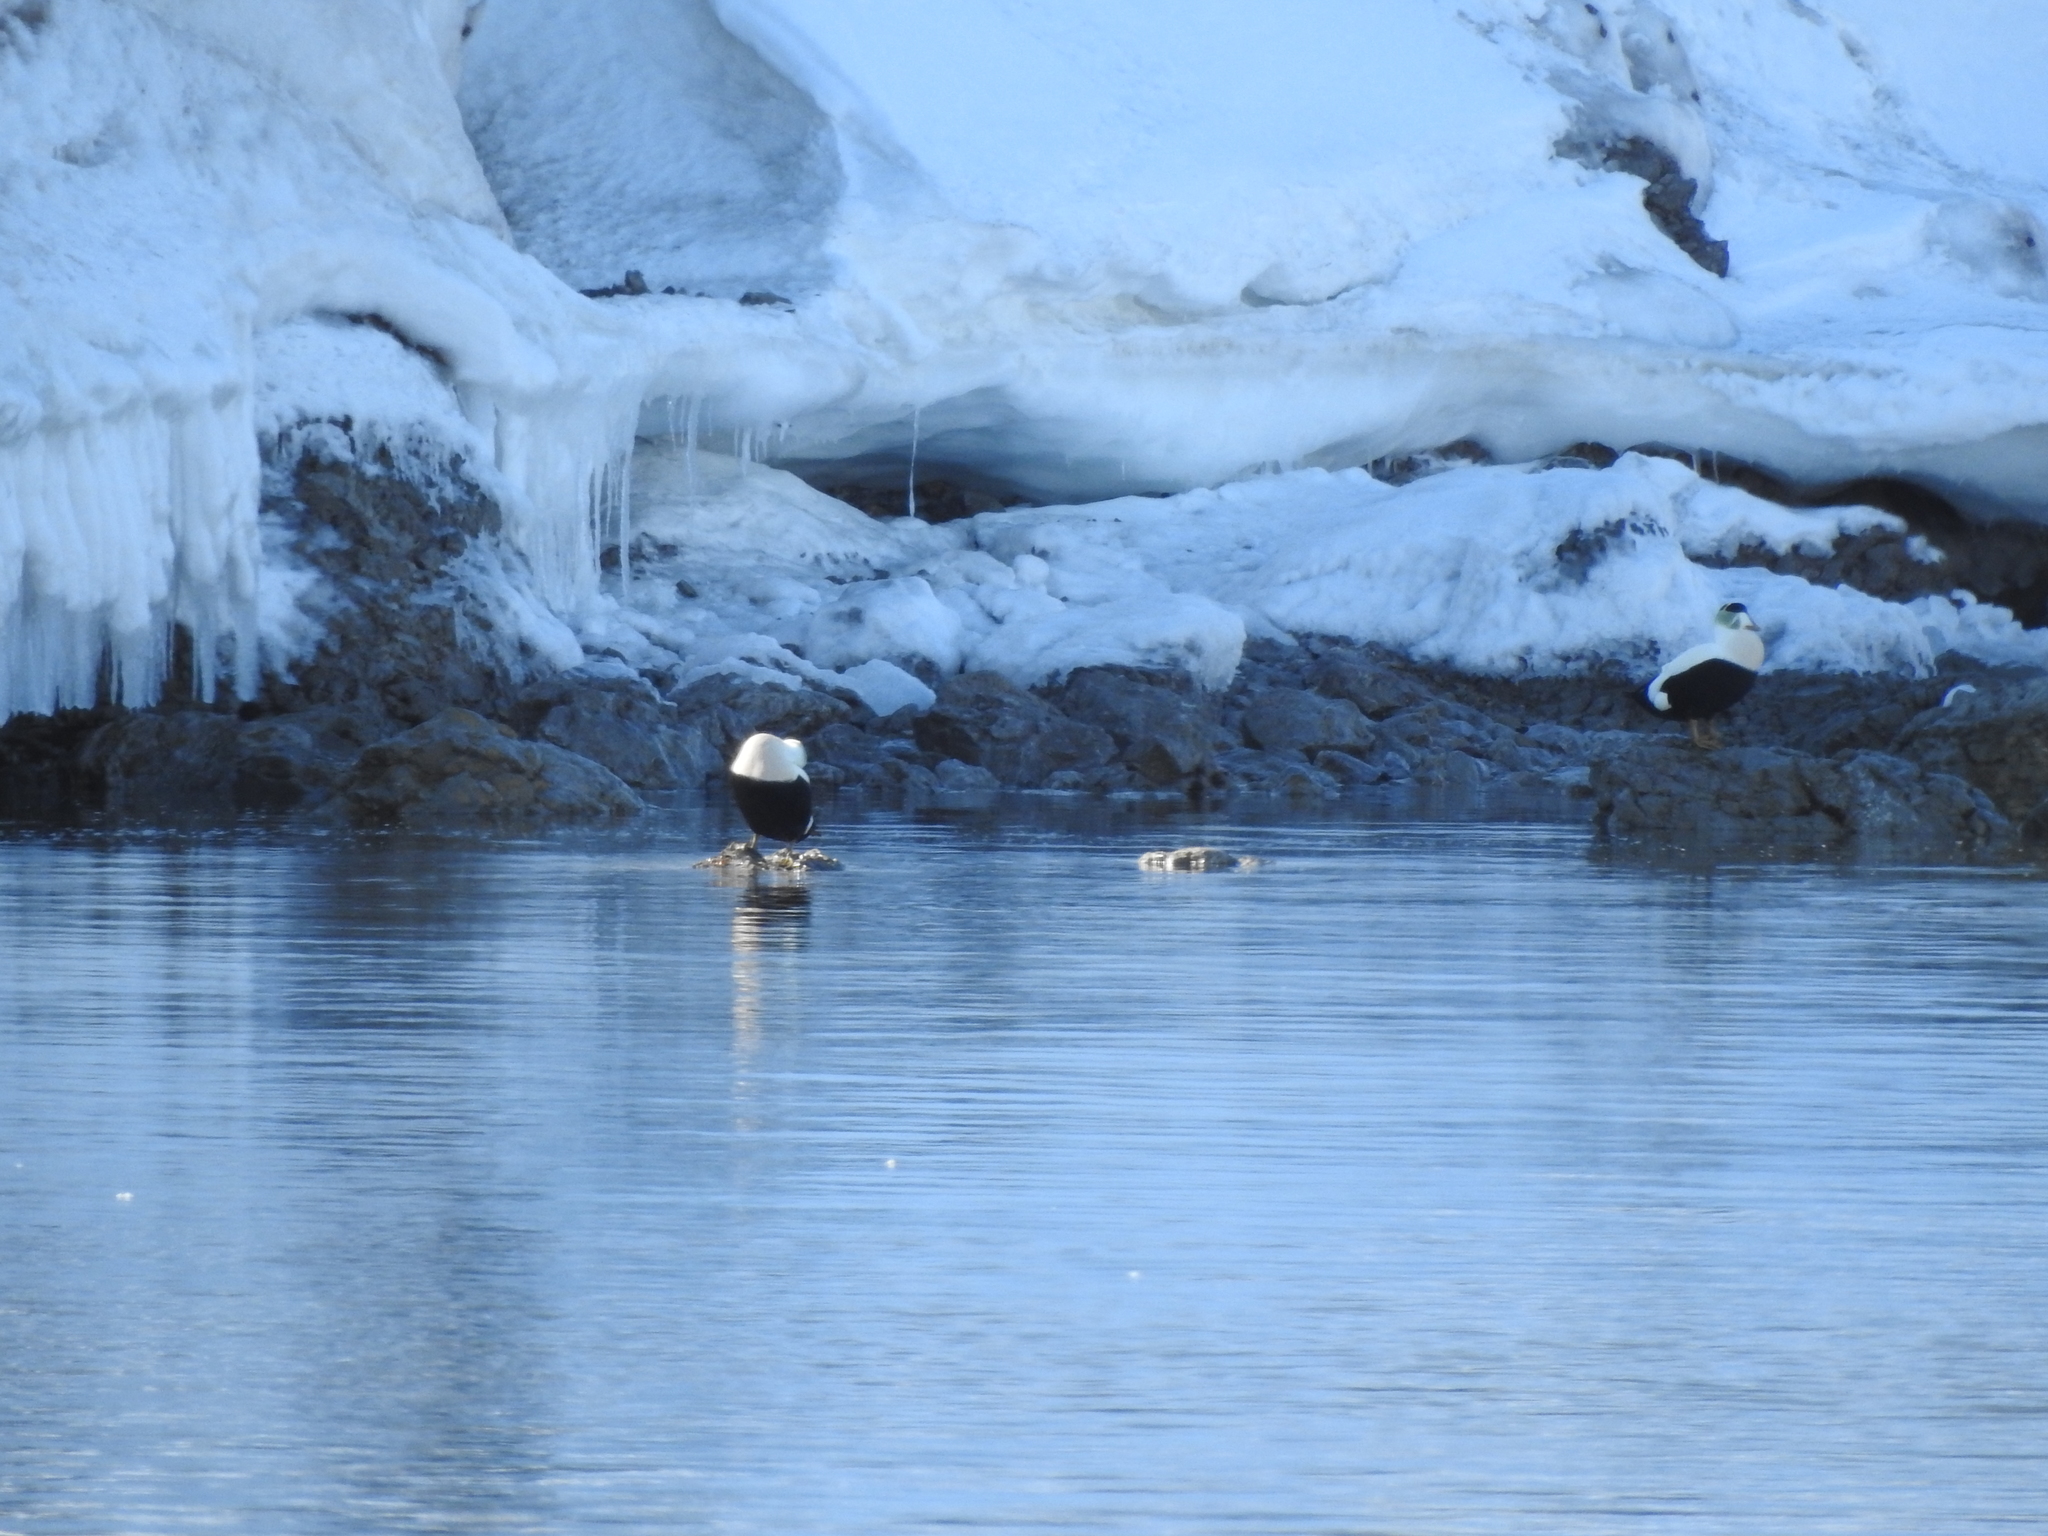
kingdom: Animalia
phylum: Chordata
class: Aves
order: Anseriformes
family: Anatidae
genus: Somateria
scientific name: Somateria mollissima
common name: Common eider
